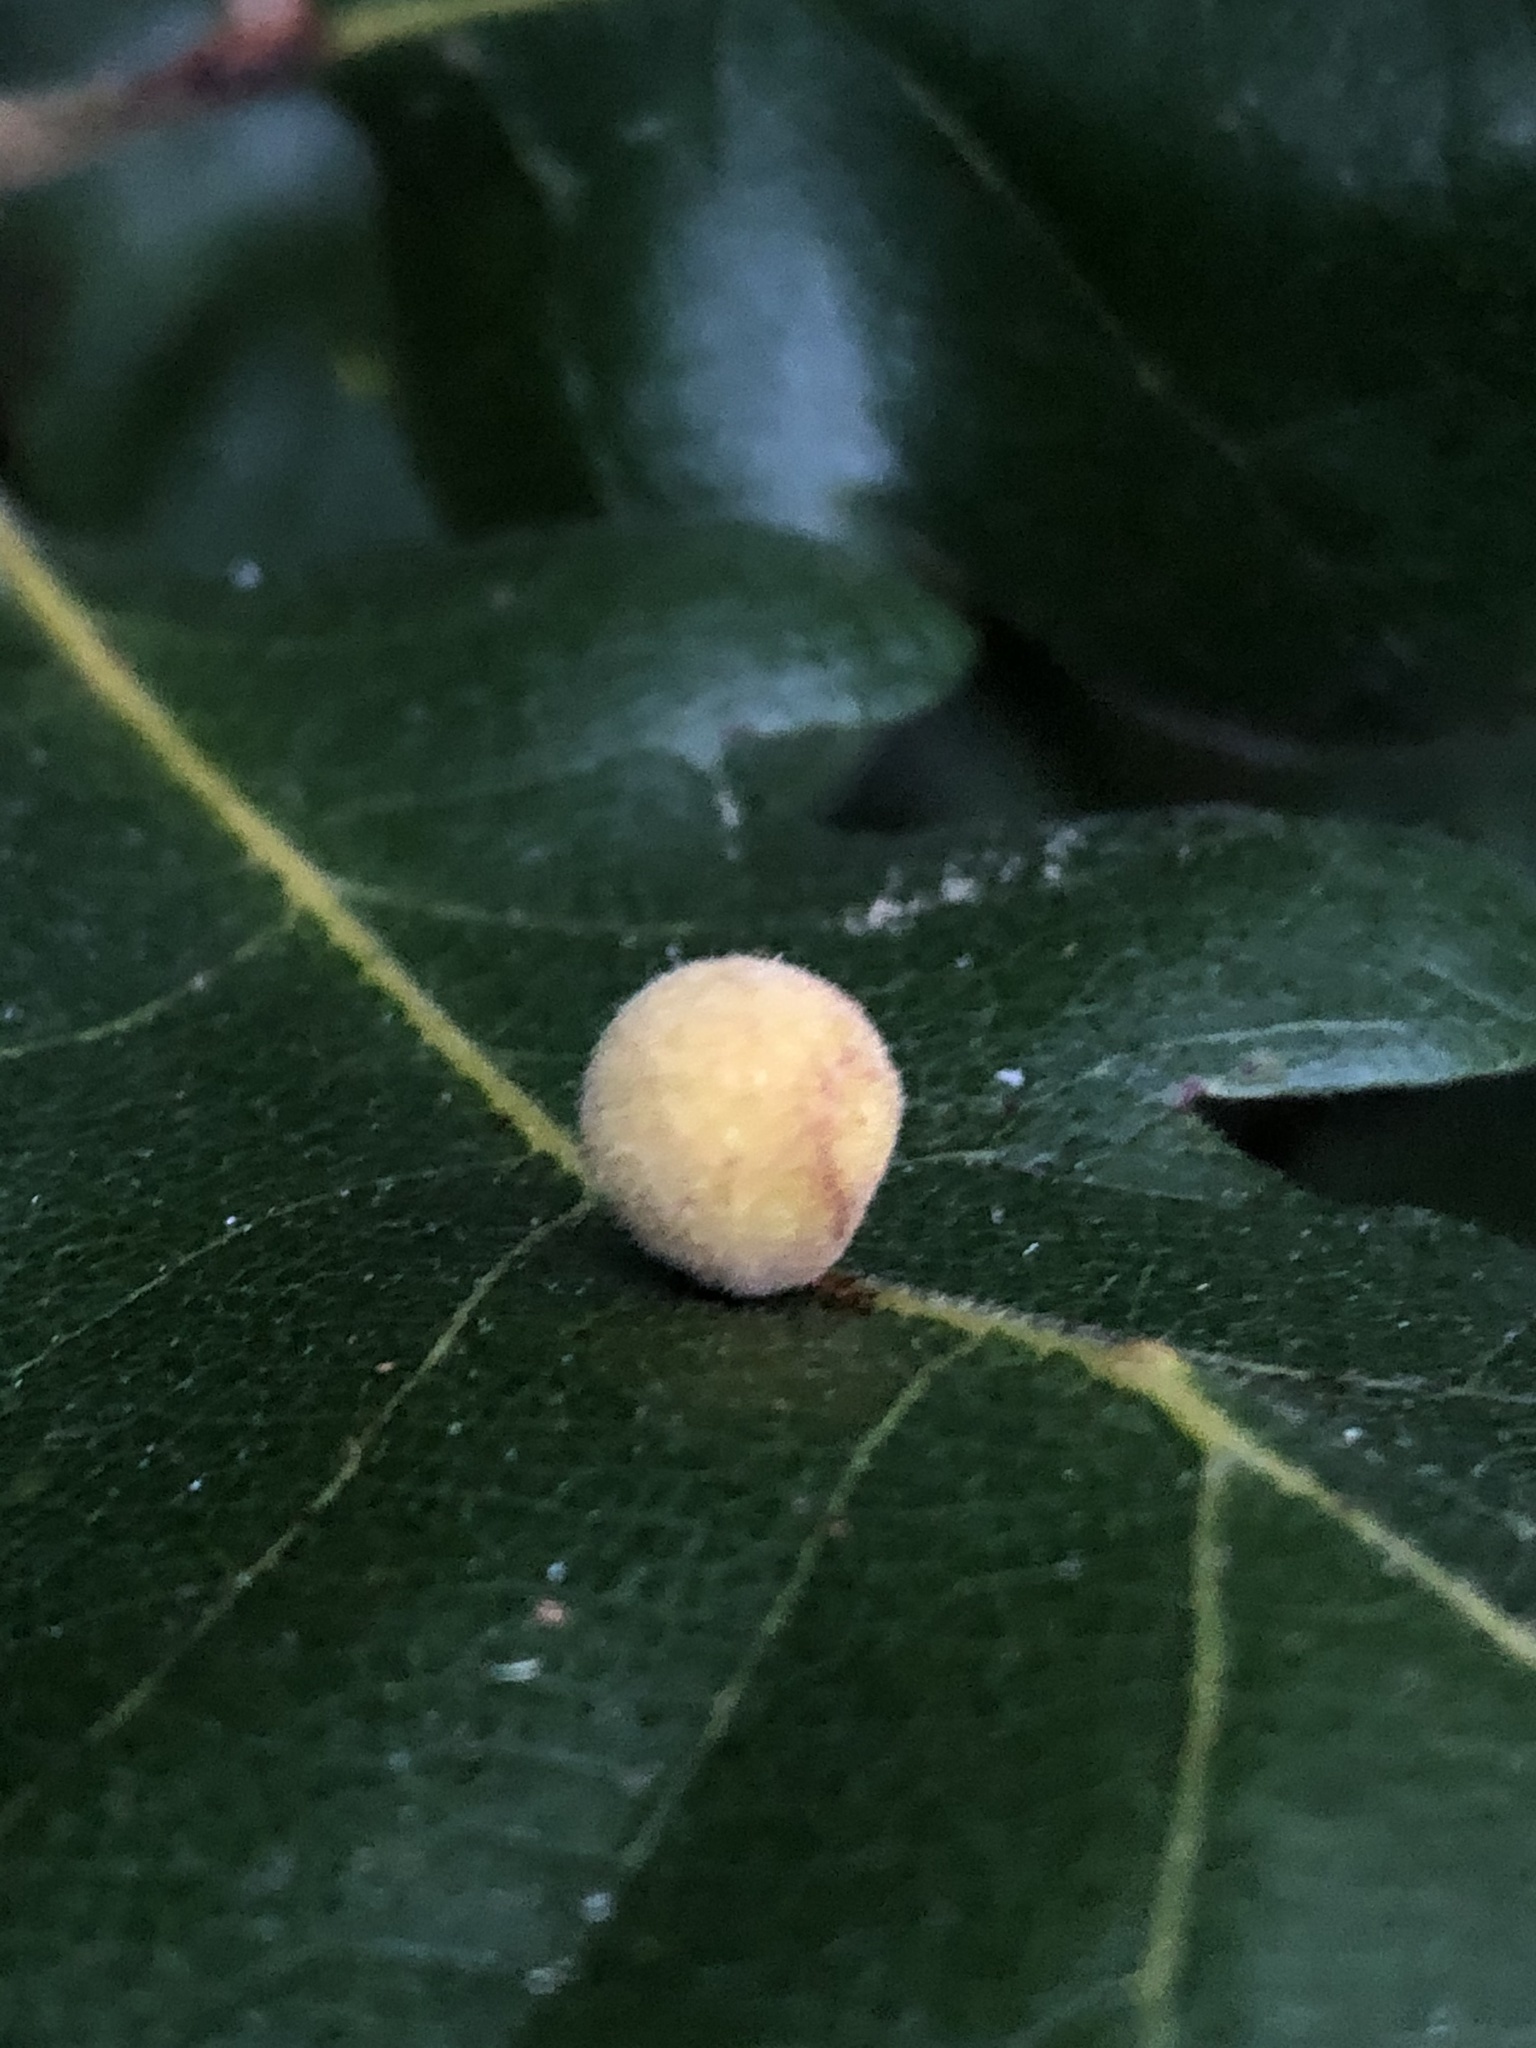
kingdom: Animalia
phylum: Arthropoda
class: Insecta
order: Hymenoptera
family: Cynipidae
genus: Cynips
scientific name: Cynips
